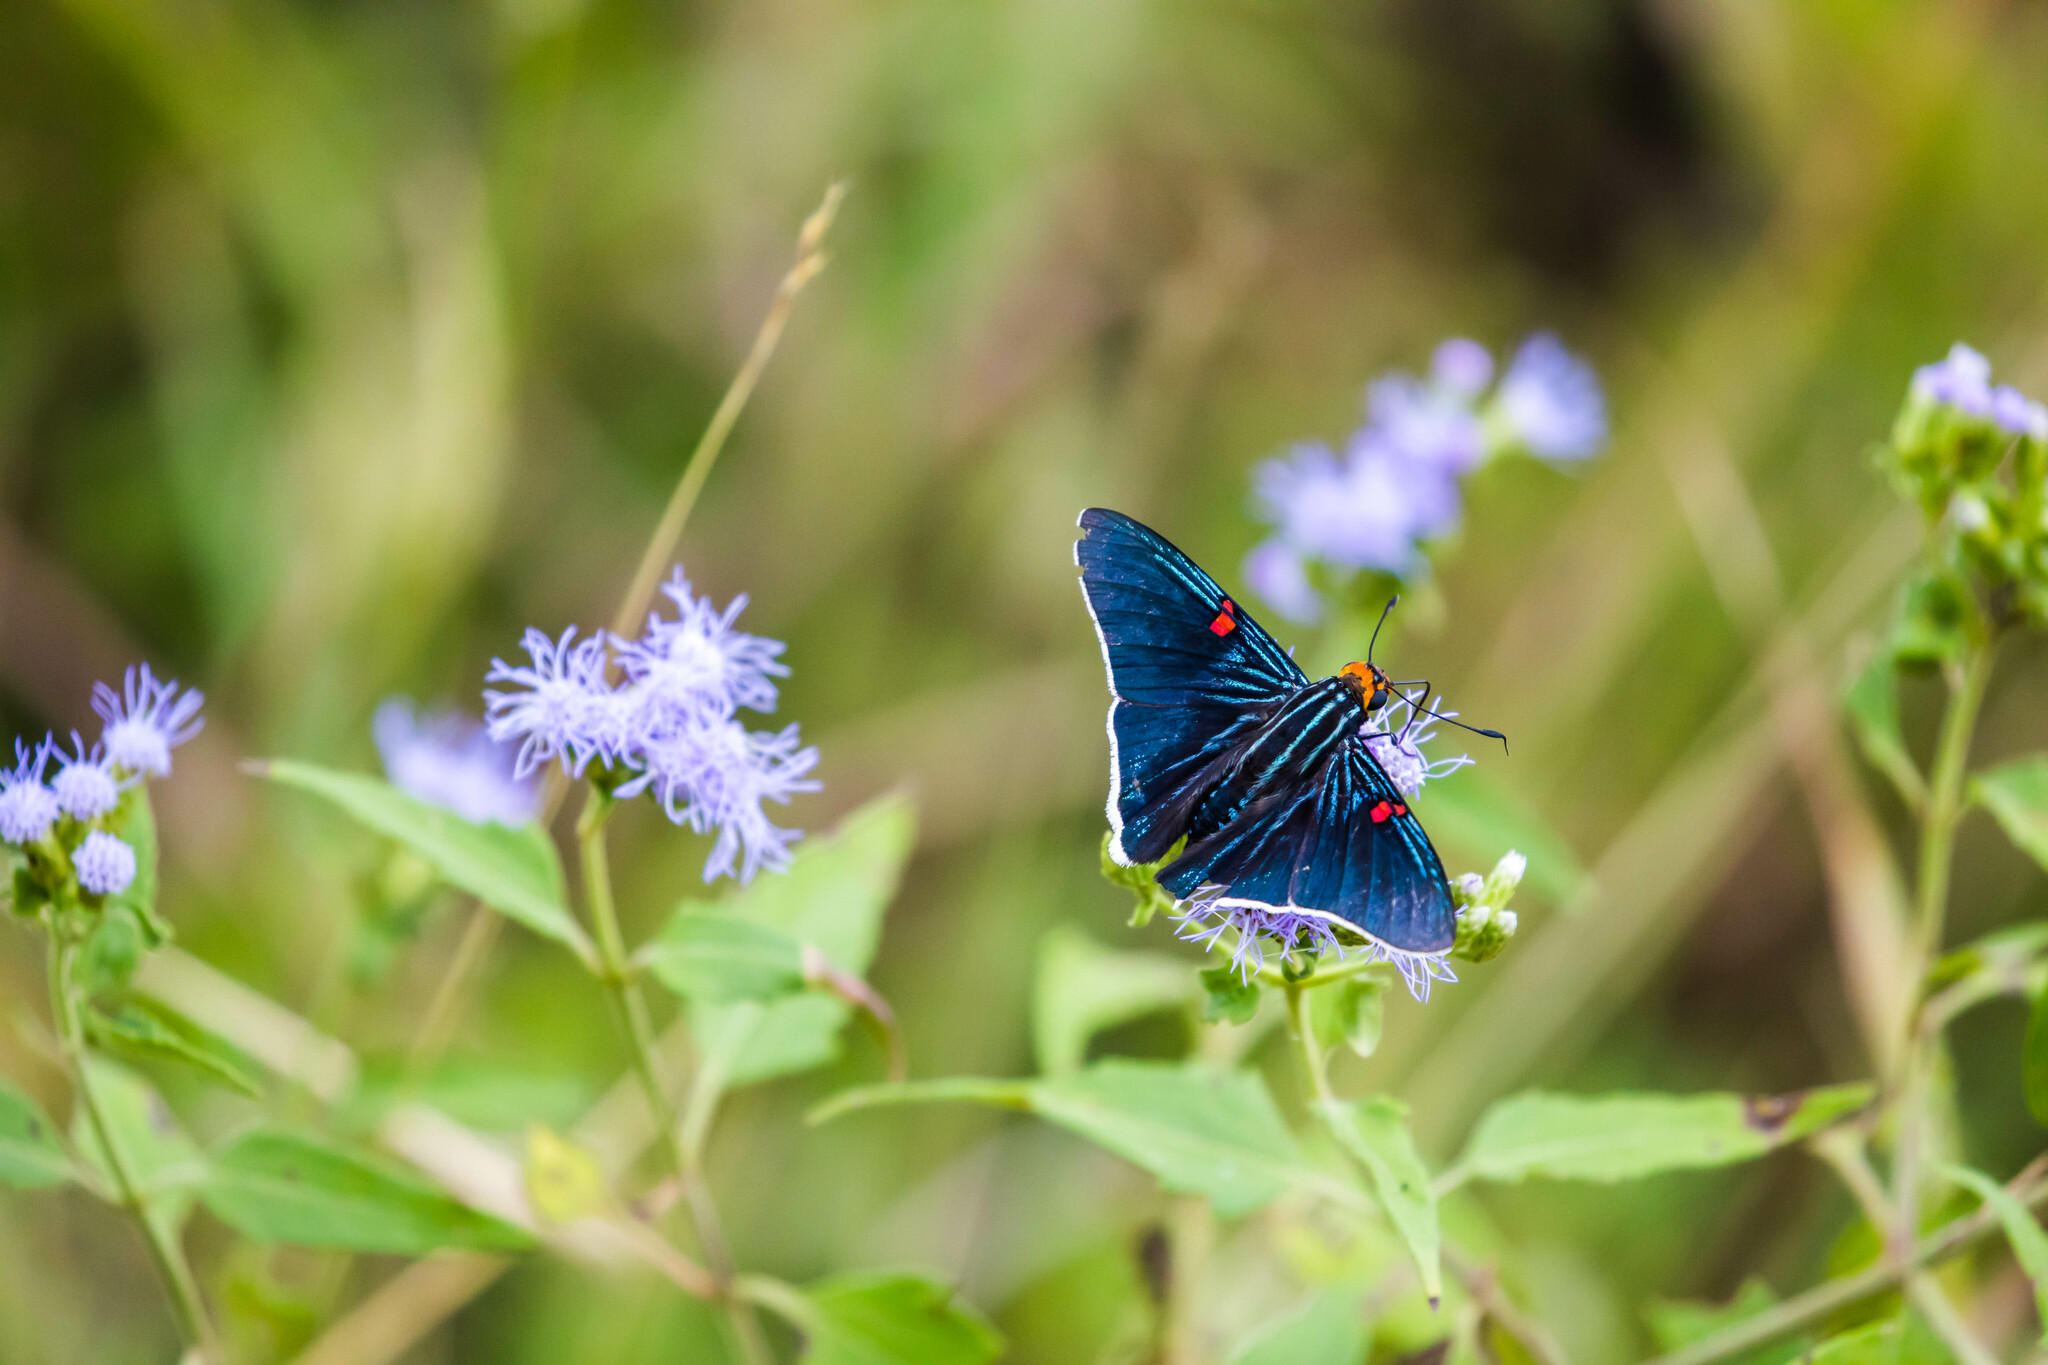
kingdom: Animalia
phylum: Arthropoda
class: Insecta
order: Lepidoptera
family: Hesperiidae
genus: Phocides
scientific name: Phocides lilea
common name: Guava skipper
